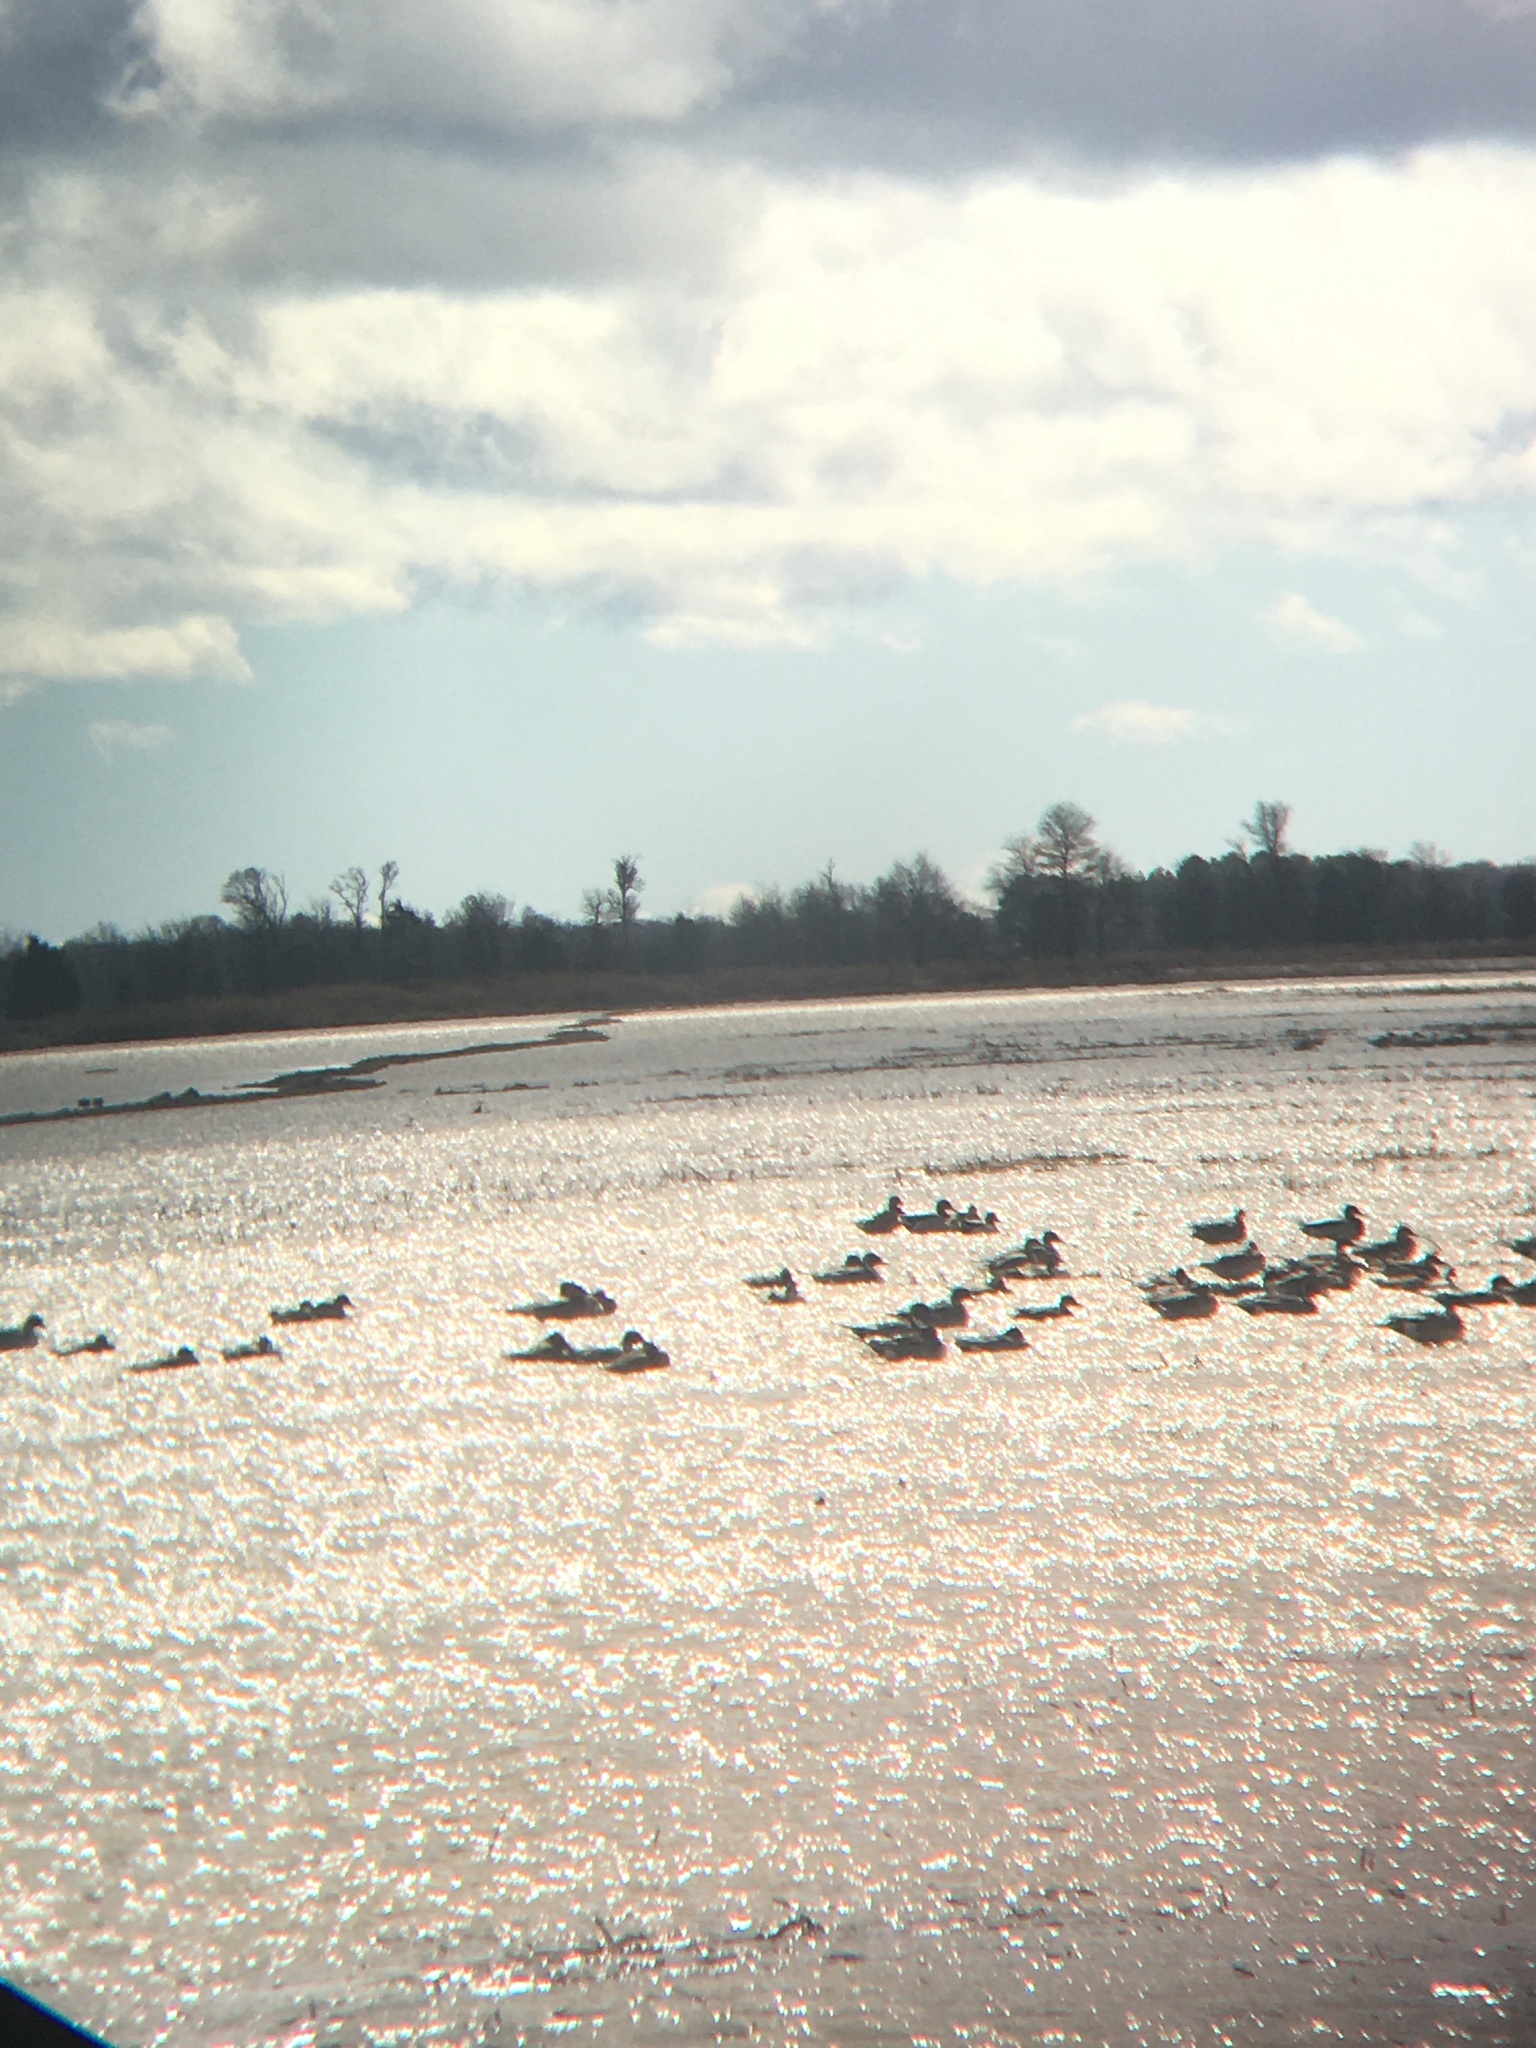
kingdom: Animalia
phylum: Chordata
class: Aves
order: Anseriformes
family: Anatidae
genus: Anas
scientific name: Anas acuta
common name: Northern pintail
